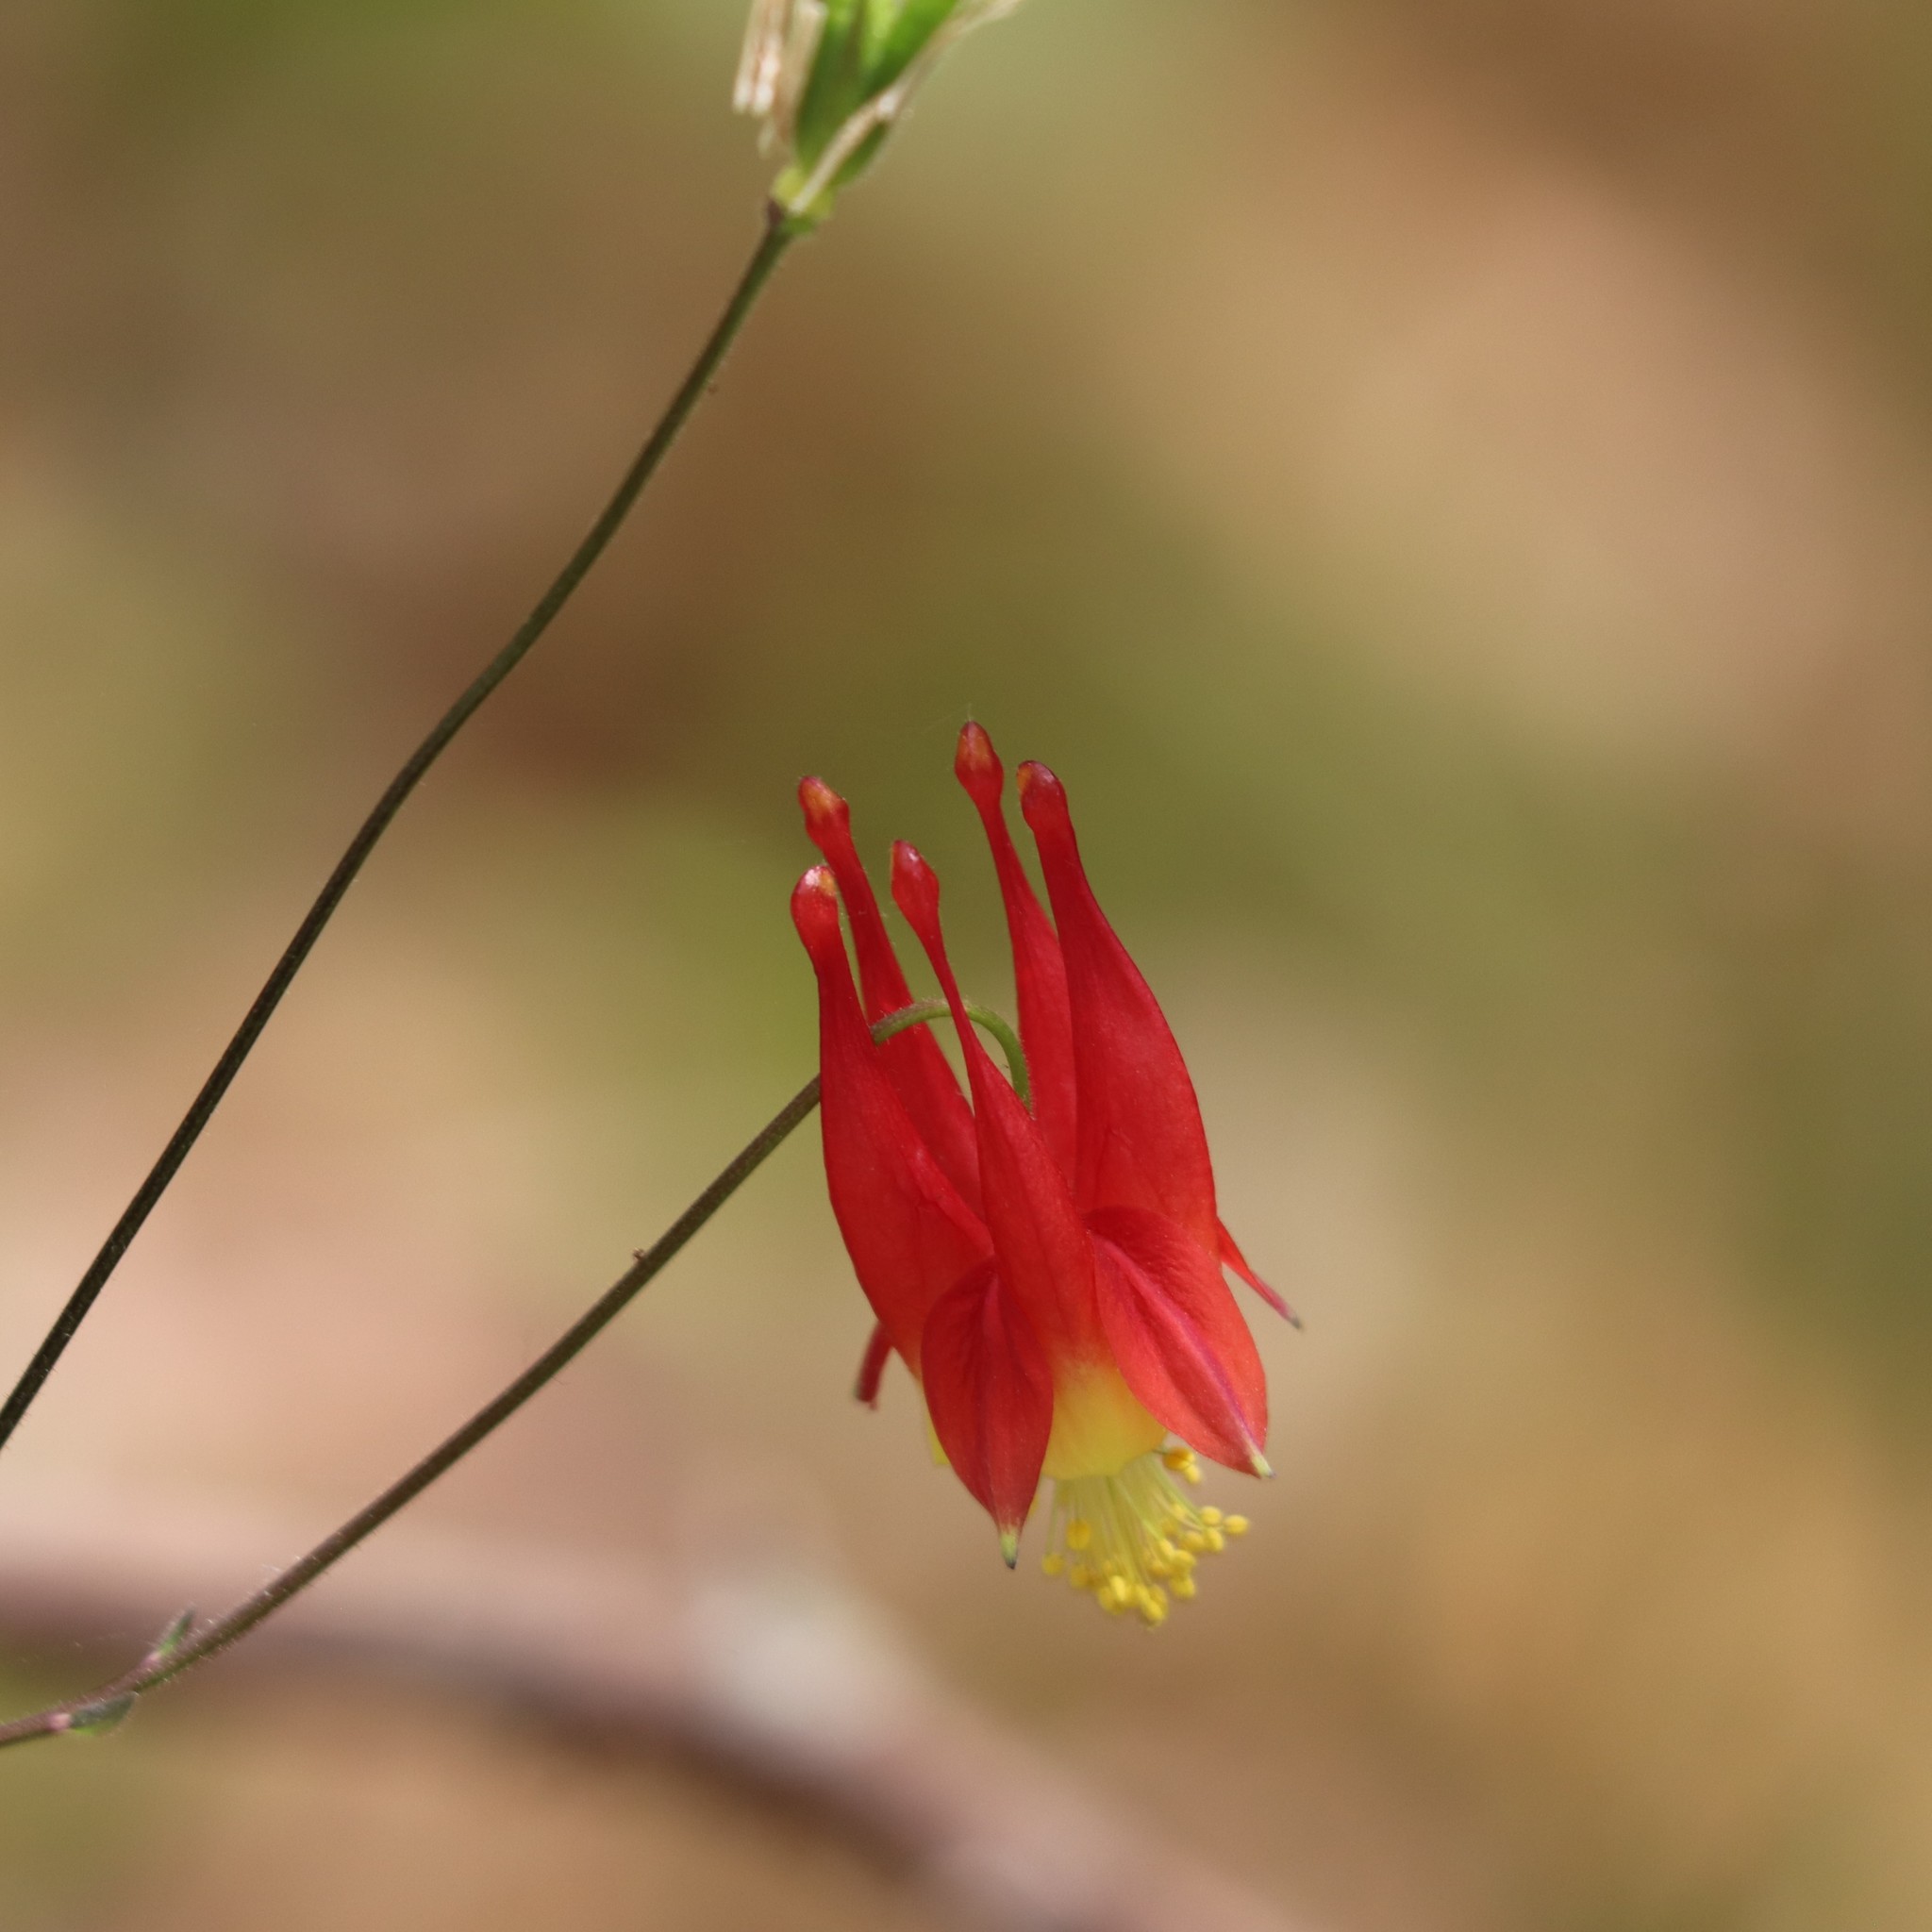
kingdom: Plantae
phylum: Tracheophyta
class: Magnoliopsida
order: Ranunculales
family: Ranunculaceae
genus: Aquilegia
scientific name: Aquilegia canadensis
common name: American columbine
